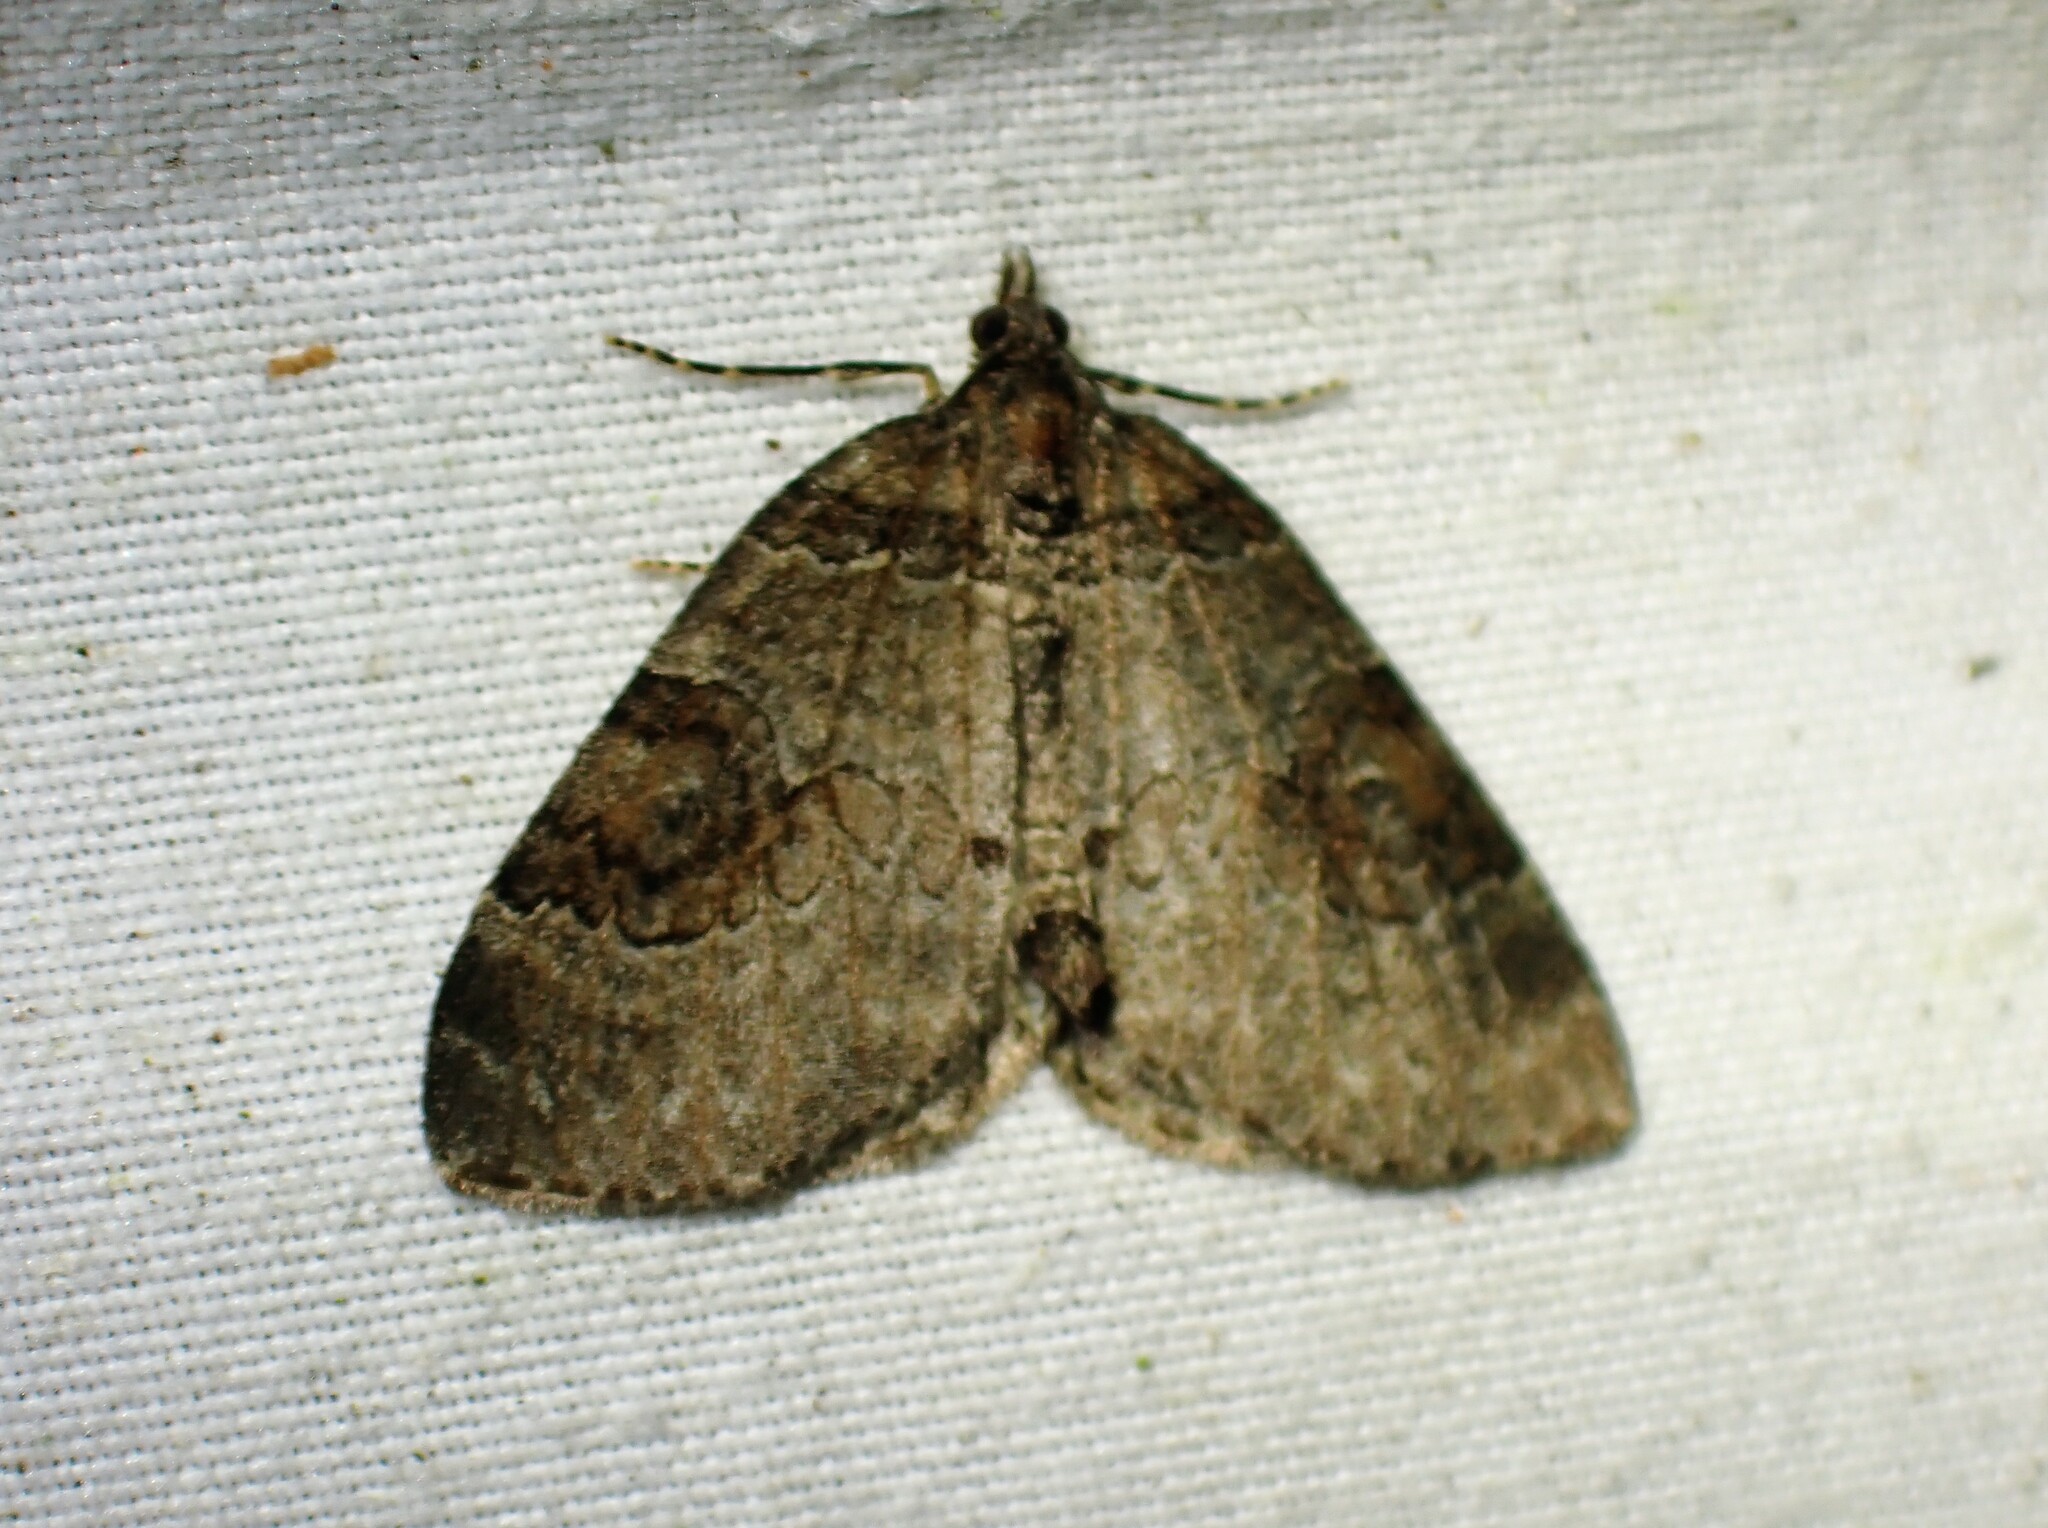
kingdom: Animalia
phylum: Arthropoda
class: Insecta
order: Lepidoptera
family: Geometridae
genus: Plemyria
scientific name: Plemyria georgii
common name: George's carpet moth
